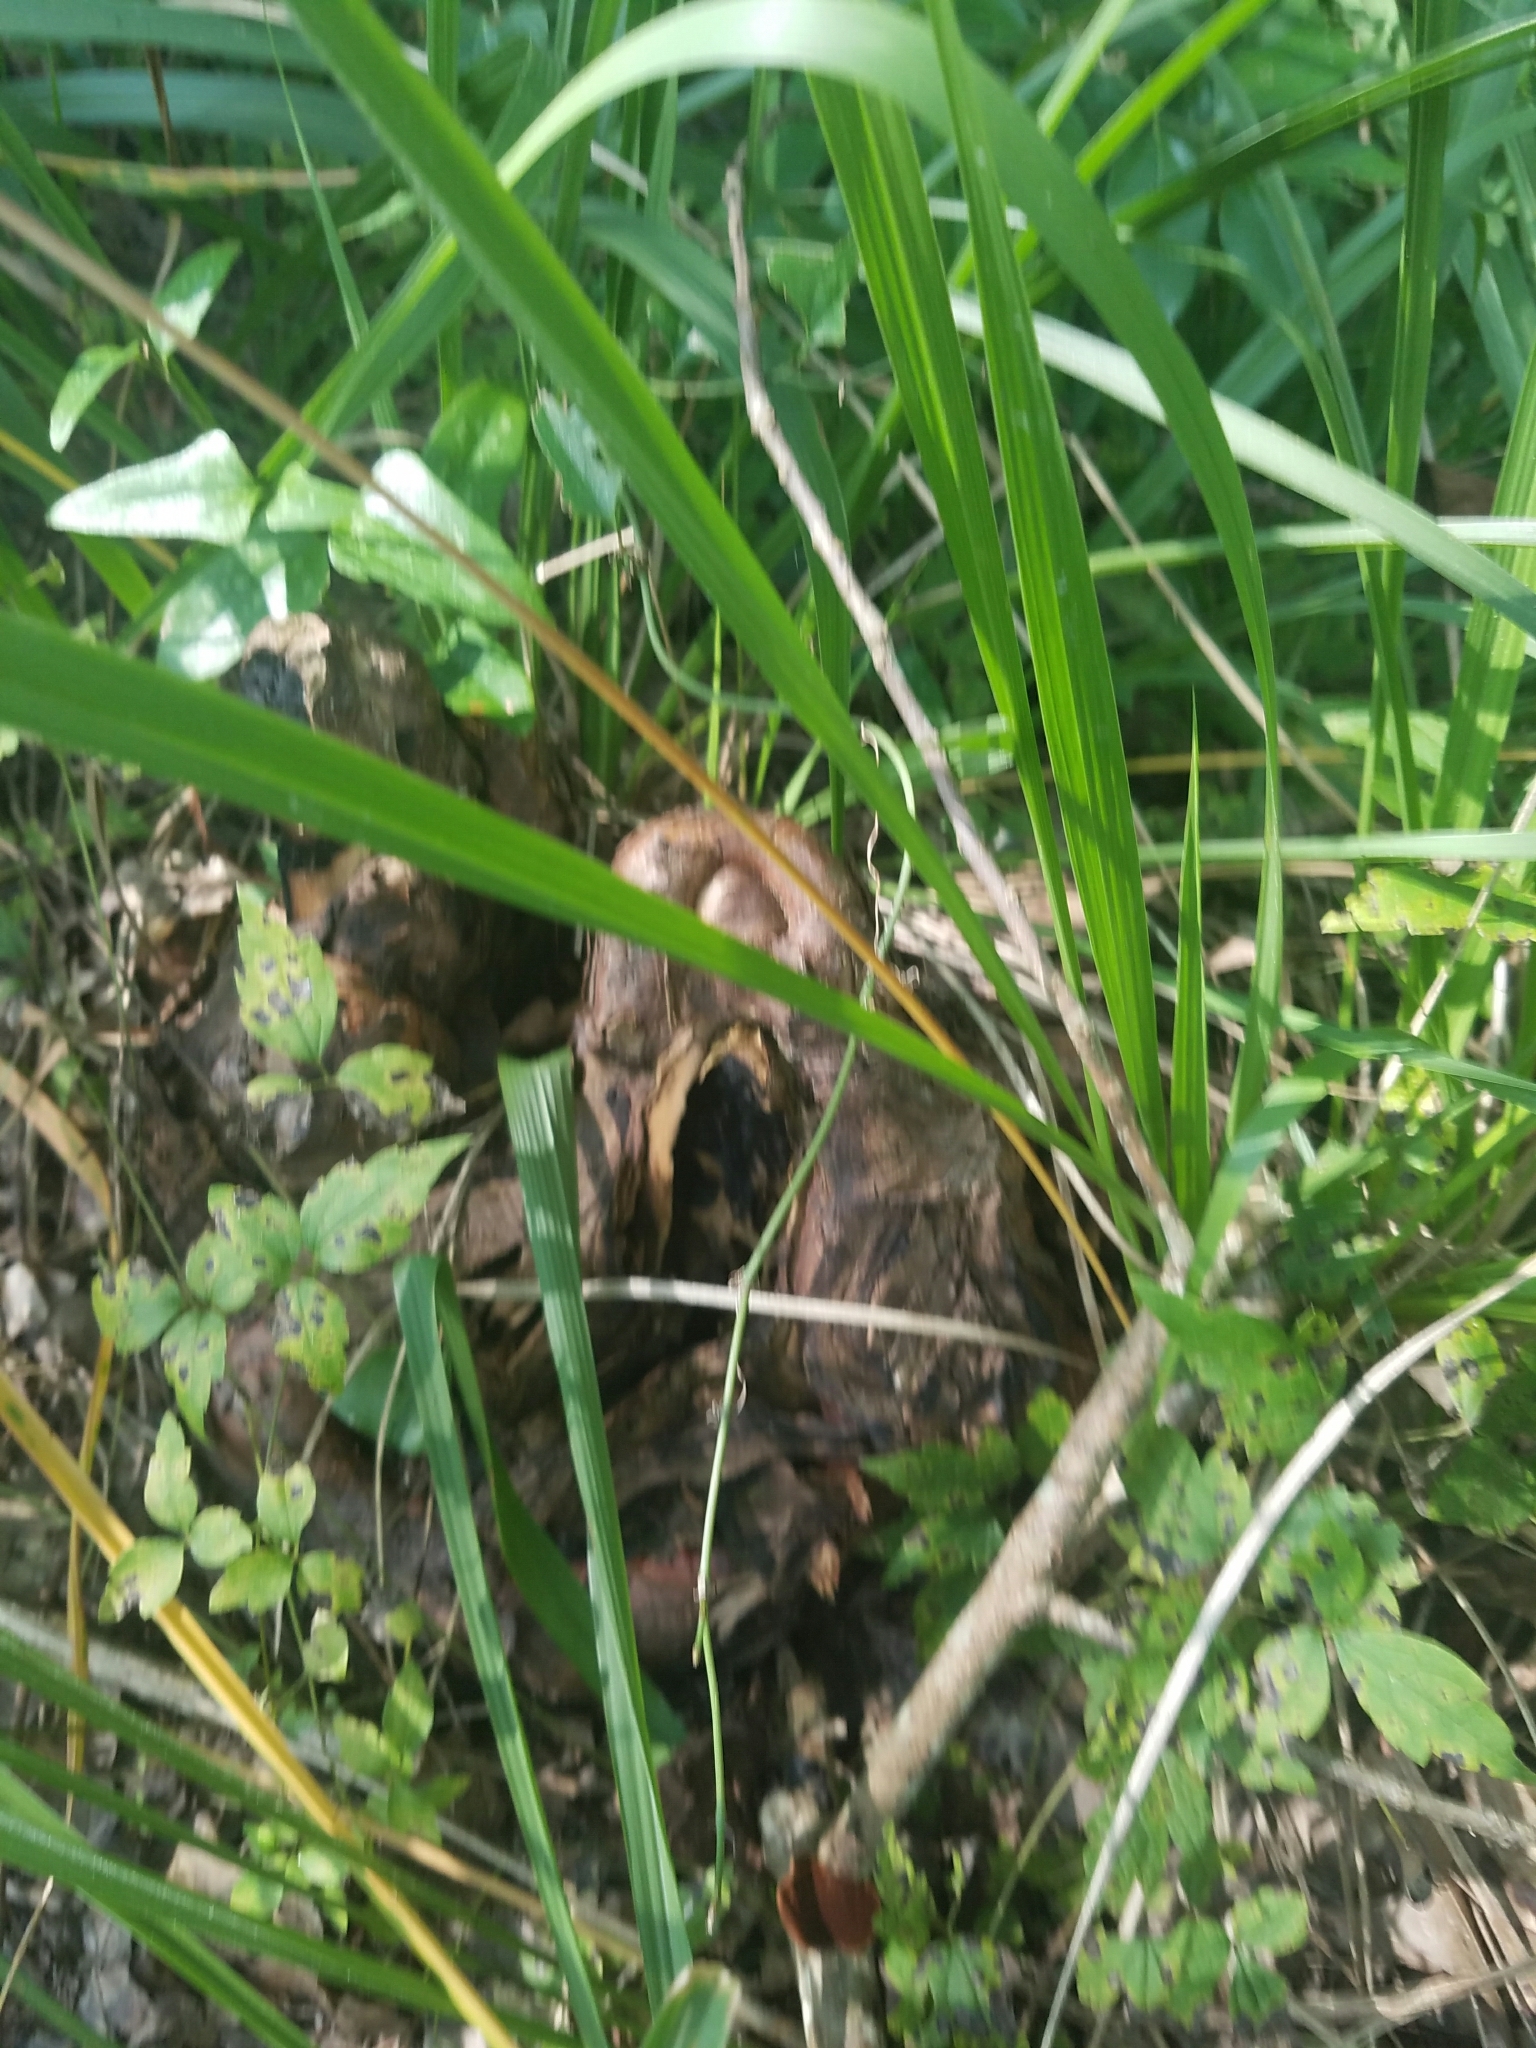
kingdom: Plantae
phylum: Tracheophyta
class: Pinopsida
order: Pinales
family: Cupressaceae
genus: Taxodium
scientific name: Taxodium distichum
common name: Bald cypress
